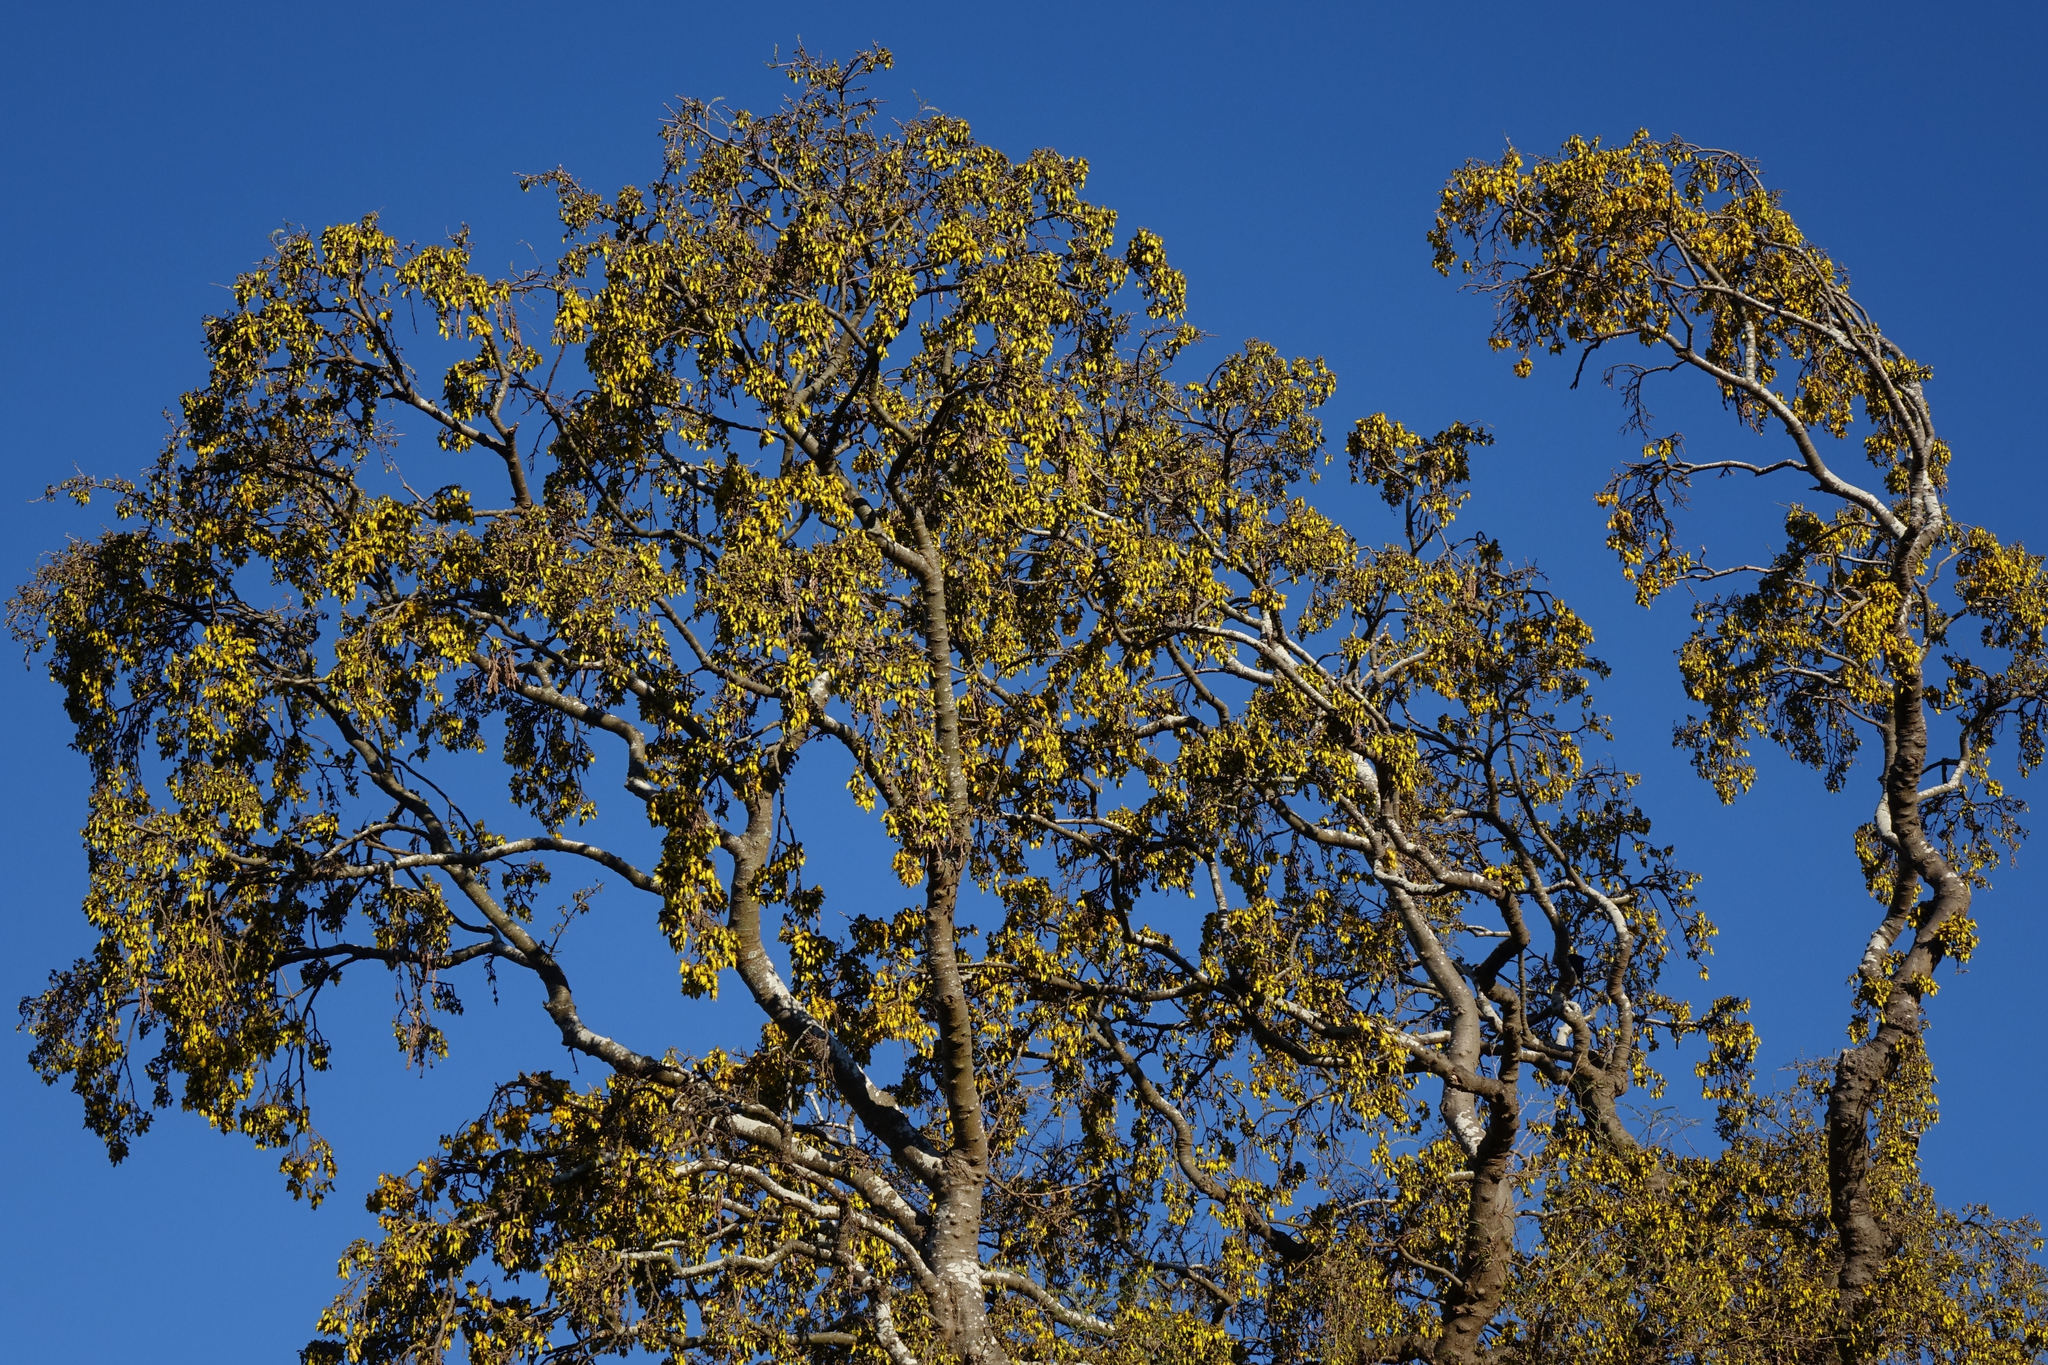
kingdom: Plantae
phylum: Tracheophyta
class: Magnoliopsida
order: Fabales
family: Fabaceae
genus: Sophora
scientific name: Sophora microphylla
